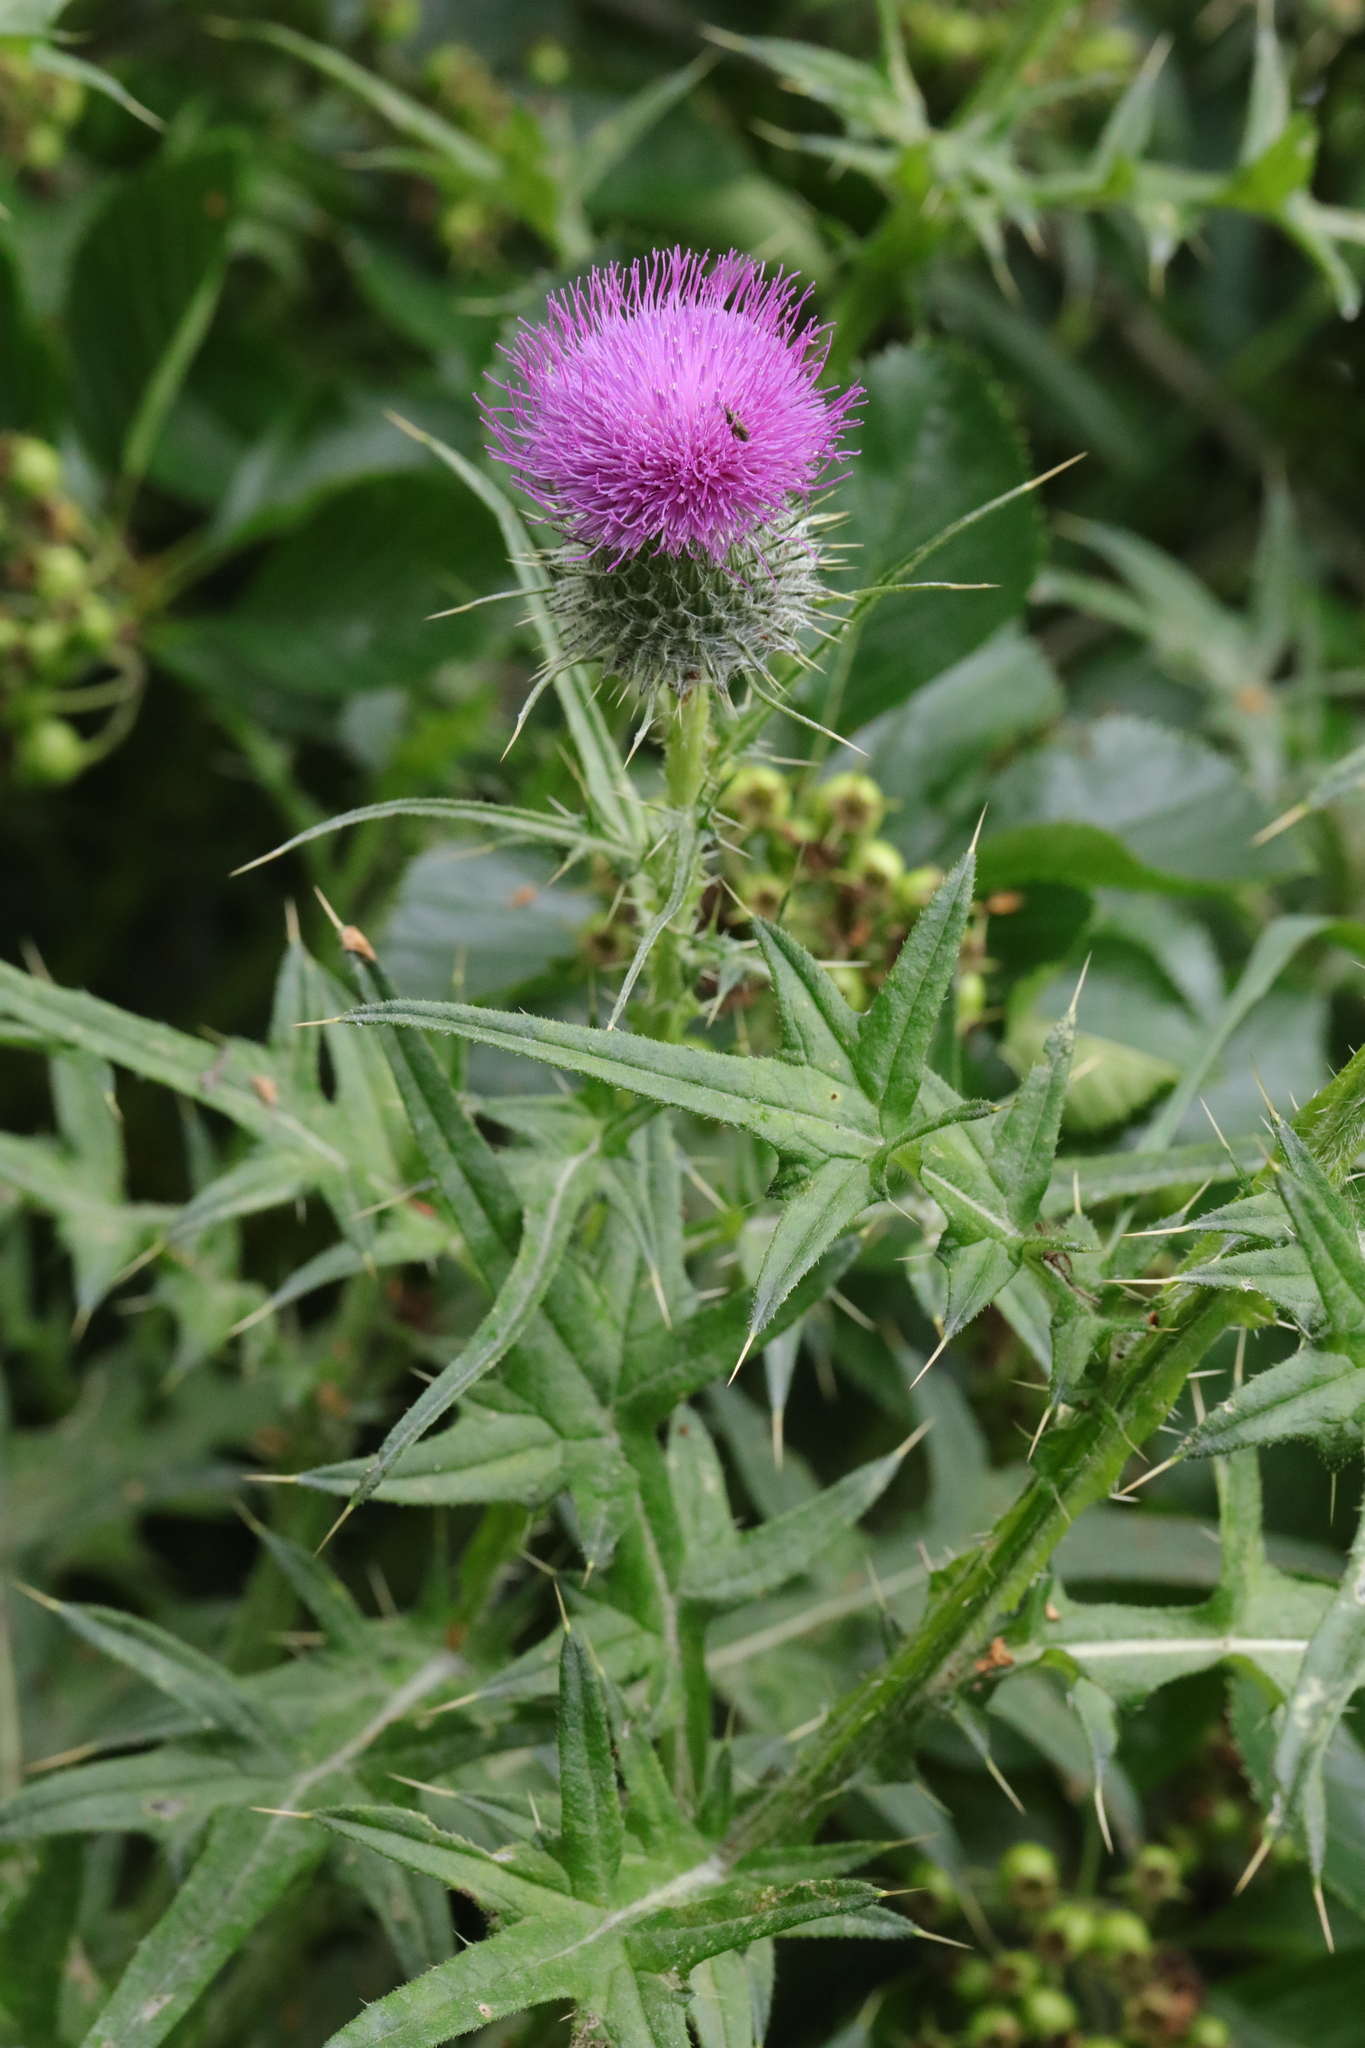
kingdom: Plantae
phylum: Tracheophyta
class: Magnoliopsida
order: Asterales
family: Asteraceae
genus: Cirsium
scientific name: Cirsium vulgare
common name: Bull thistle
